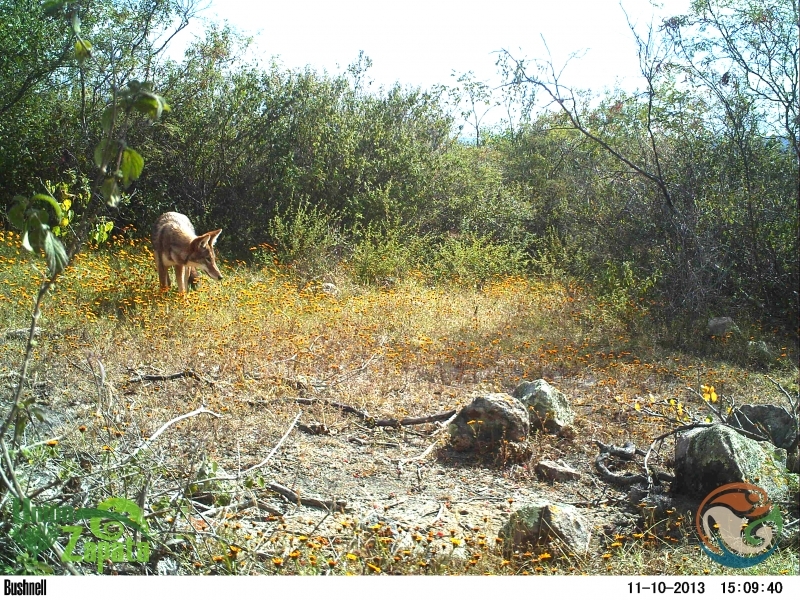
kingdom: Animalia
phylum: Chordata
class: Mammalia
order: Carnivora
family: Canidae
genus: Canis
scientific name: Canis latrans
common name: Coyote
